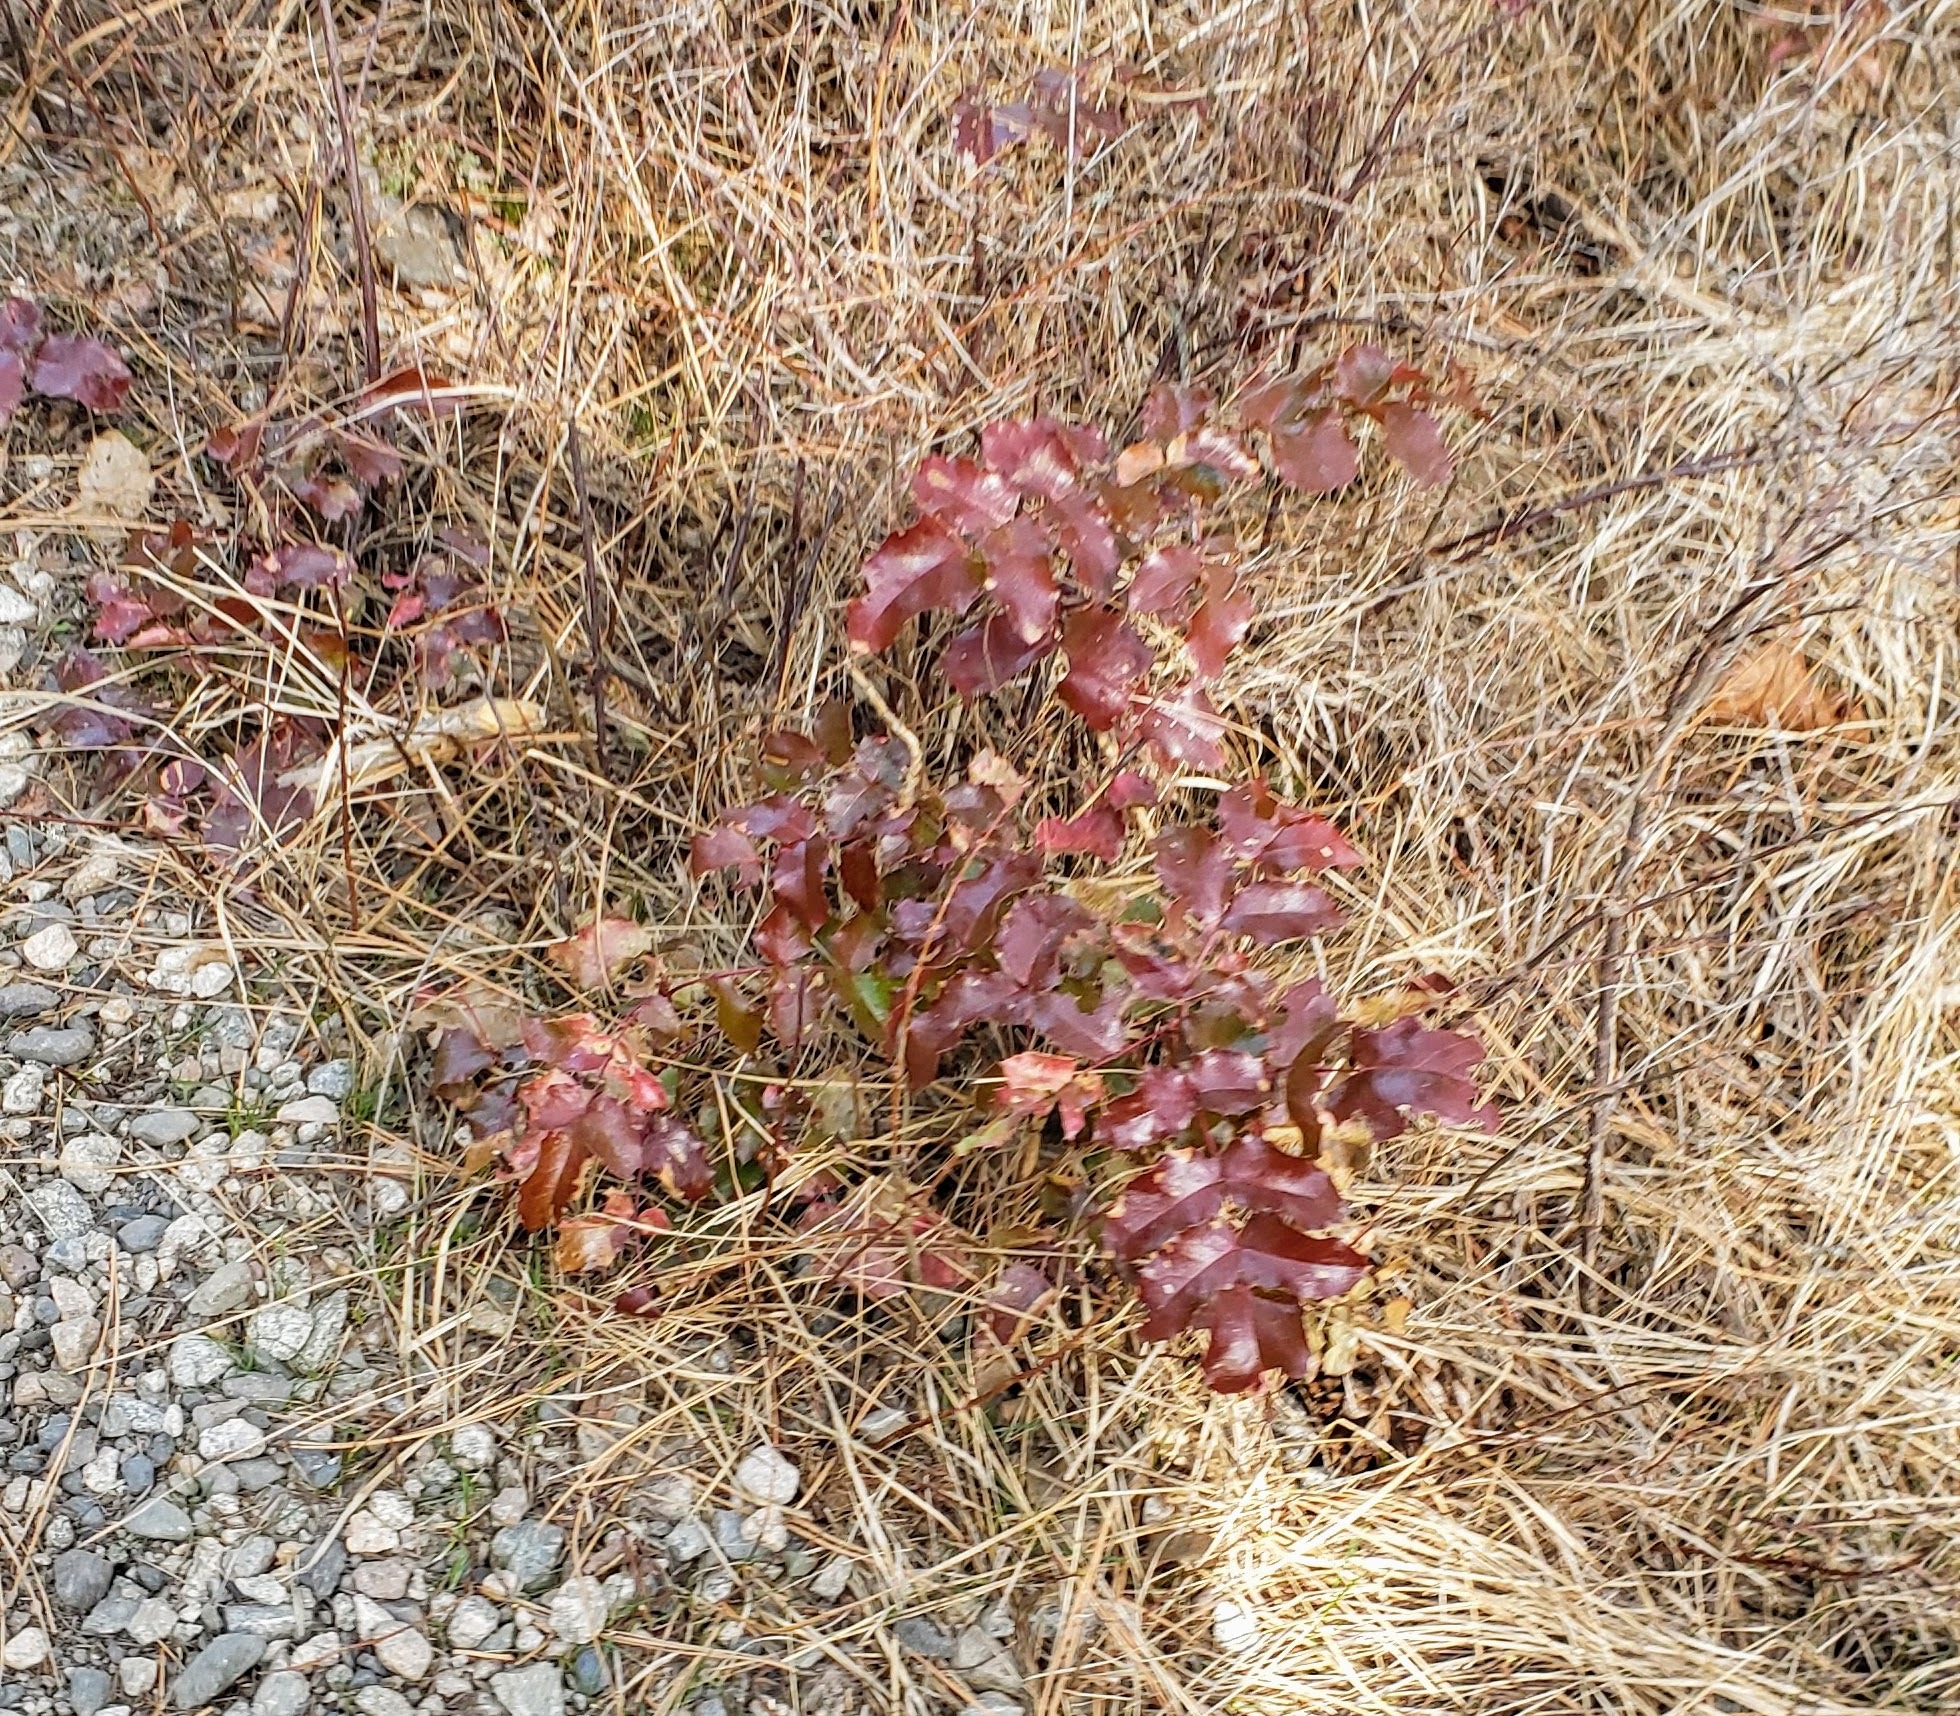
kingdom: Plantae
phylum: Tracheophyta
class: Magnoliopsida
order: Ranunculales
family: Berberidaceae
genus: Mahonia
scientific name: Mahonia aquifolium
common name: Oregon-grape
